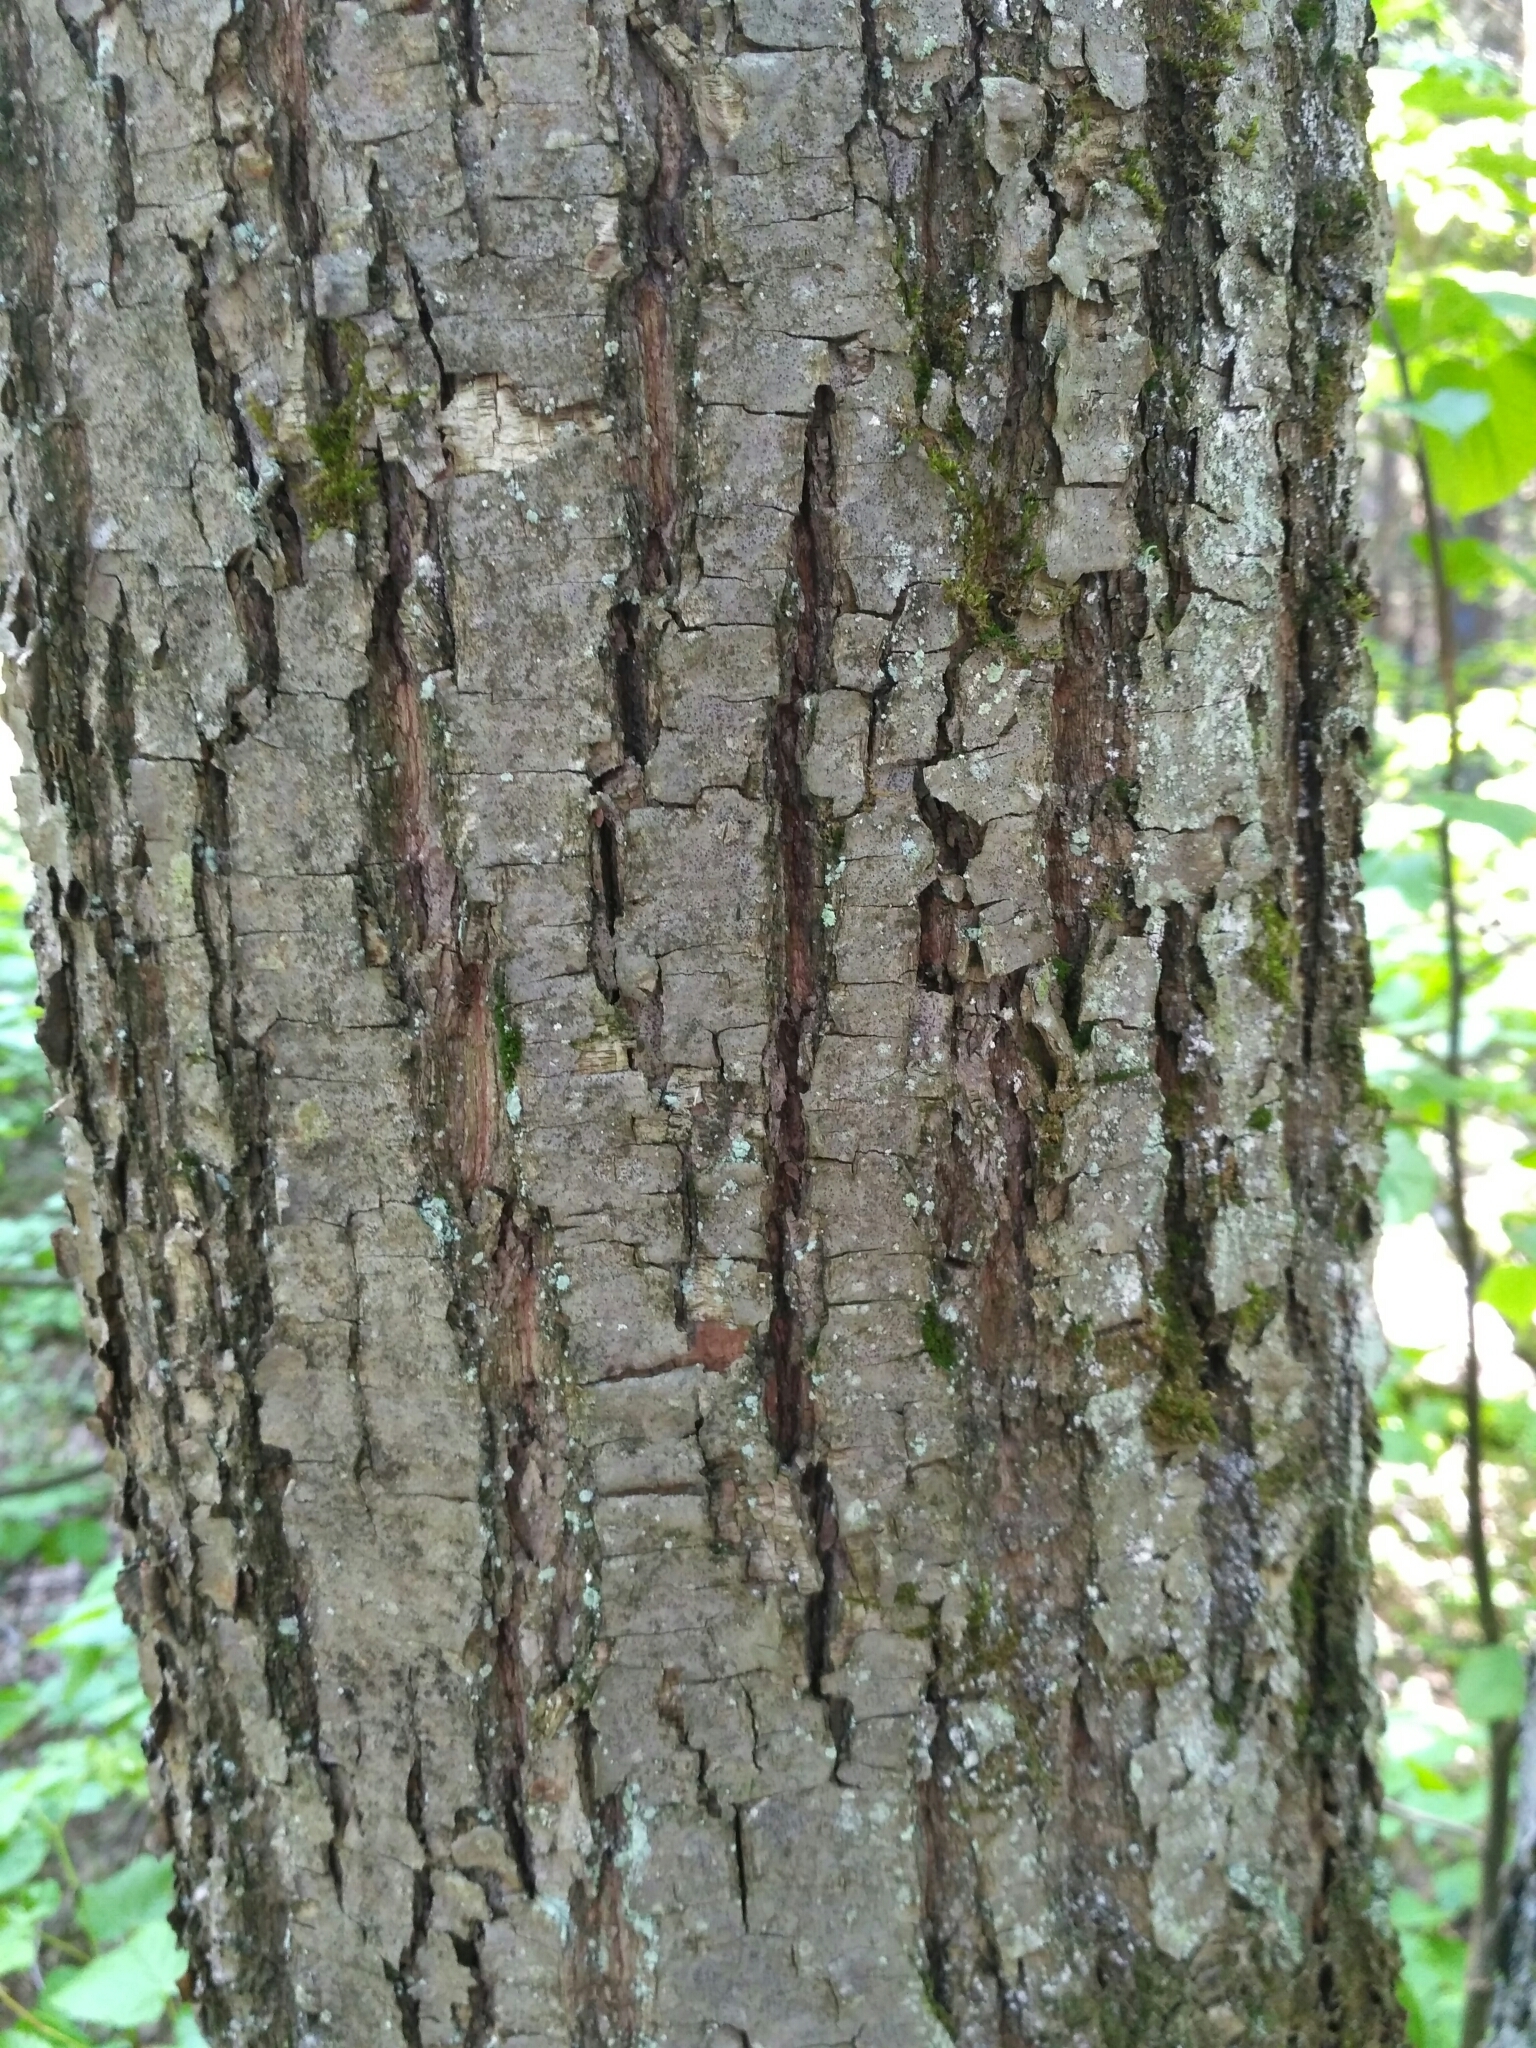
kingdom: Plantae
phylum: Tracheophyta
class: Magnoliopsida
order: Malvales
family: Malvaceae
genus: Tilia
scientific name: Tilia cordata
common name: Small-leaved lime
